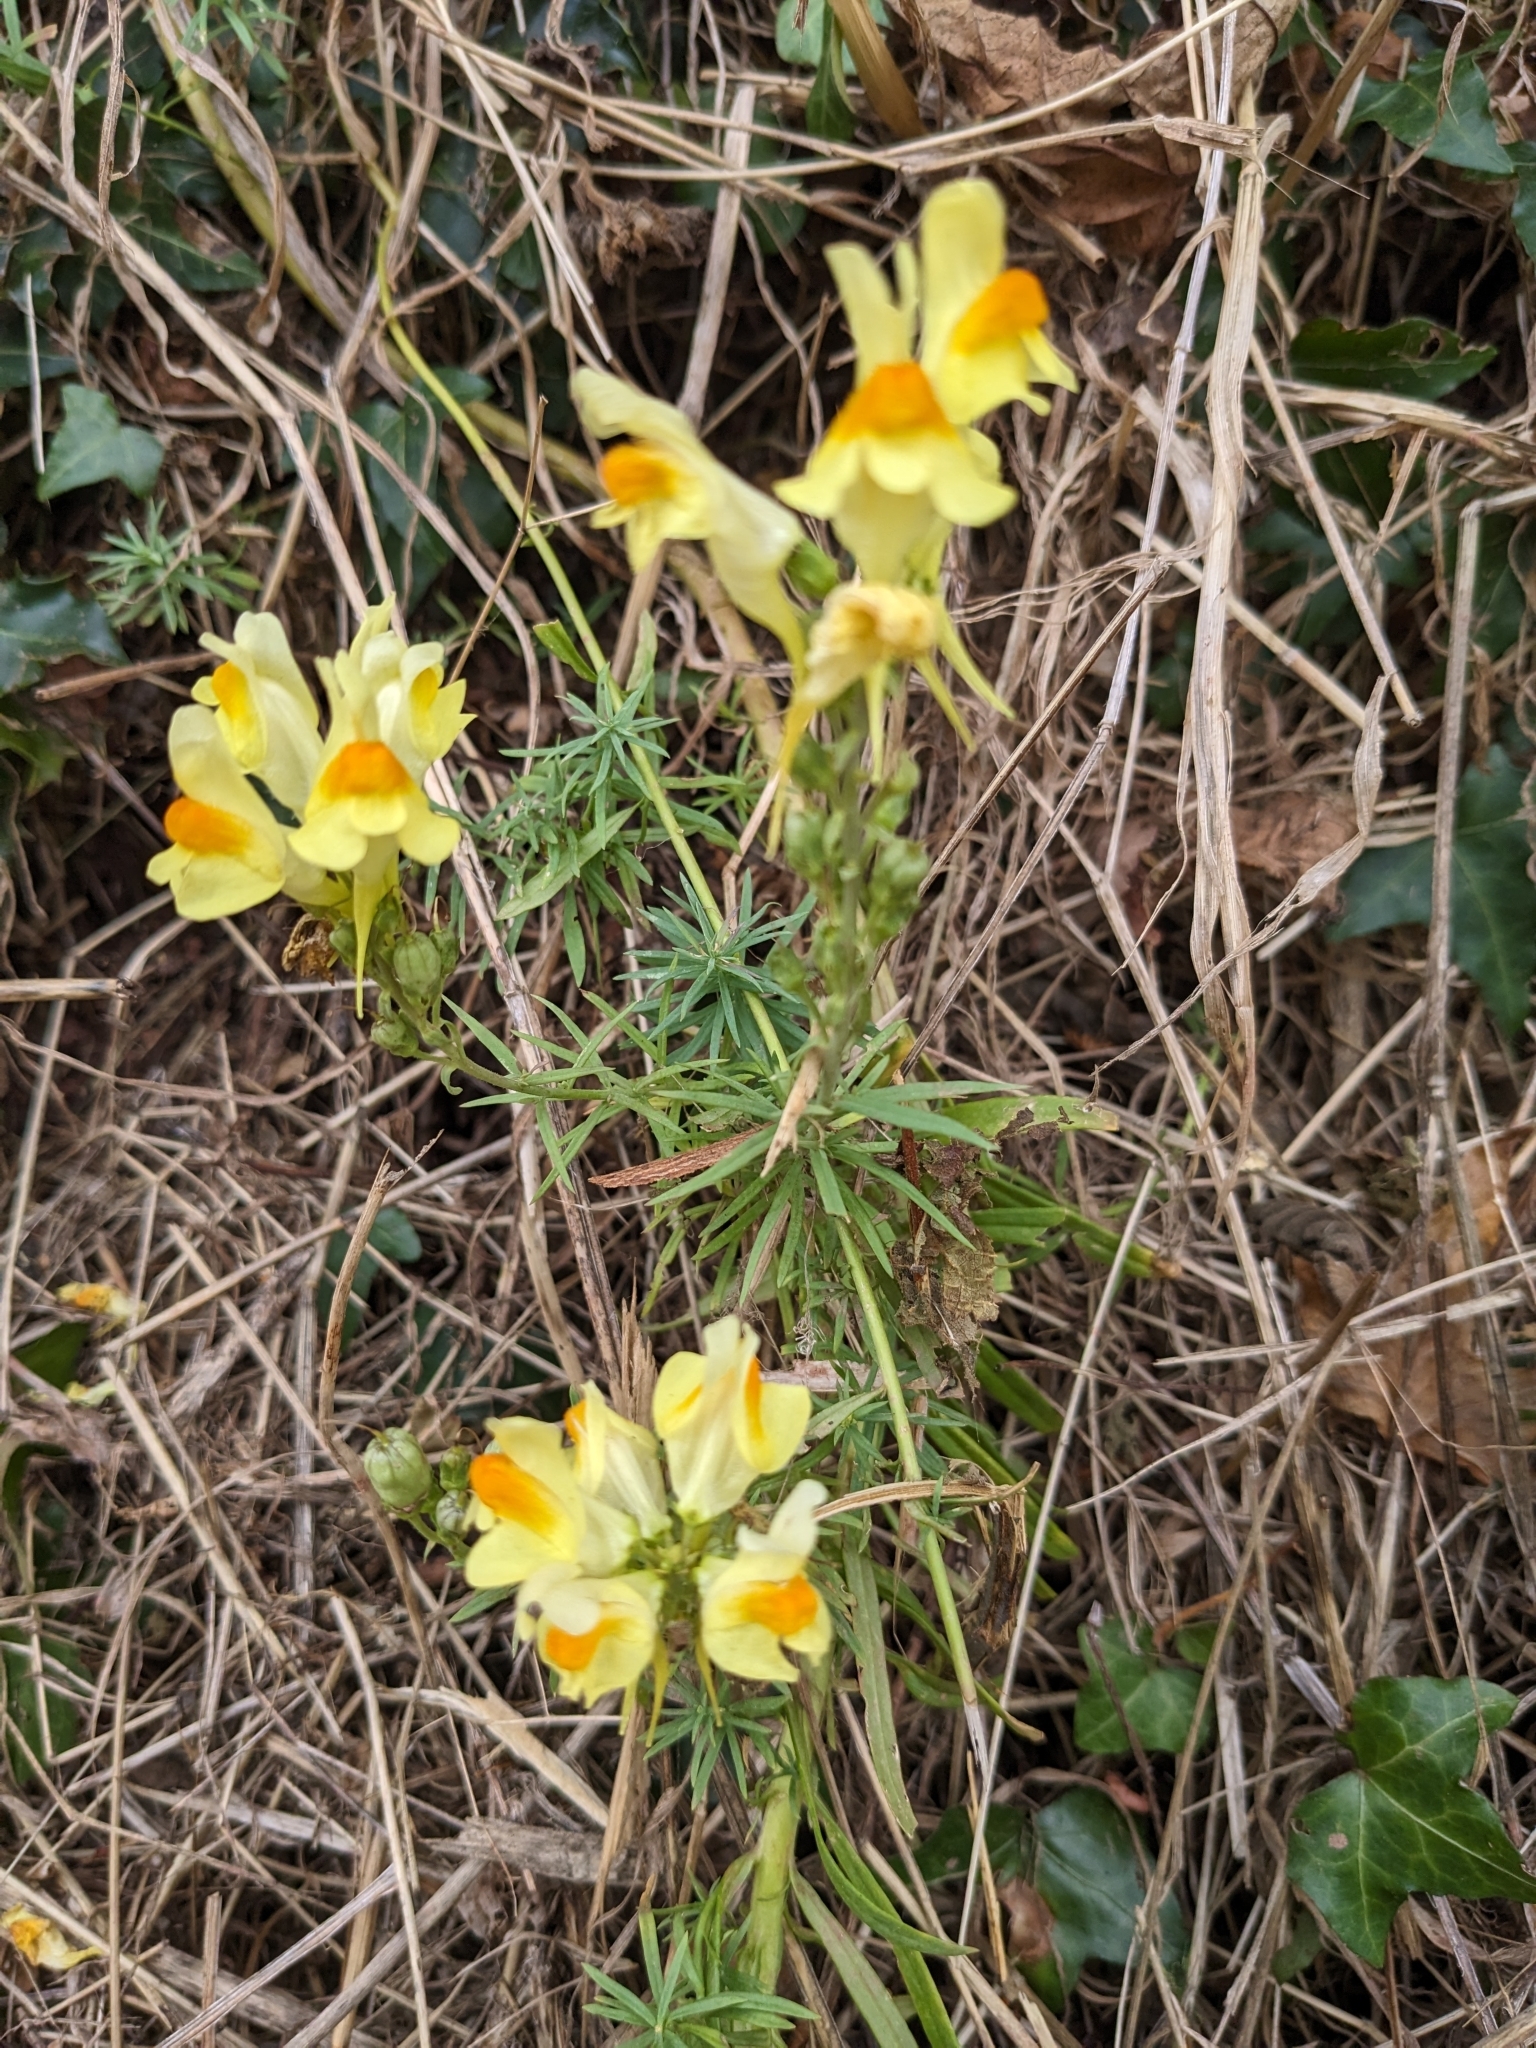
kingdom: Plantae
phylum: Tracheophyta
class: Magnoliopsida
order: Lamiales
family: Plantaginaceae
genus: Linaria
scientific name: Linaria vulgaris
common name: Butter and eggs
